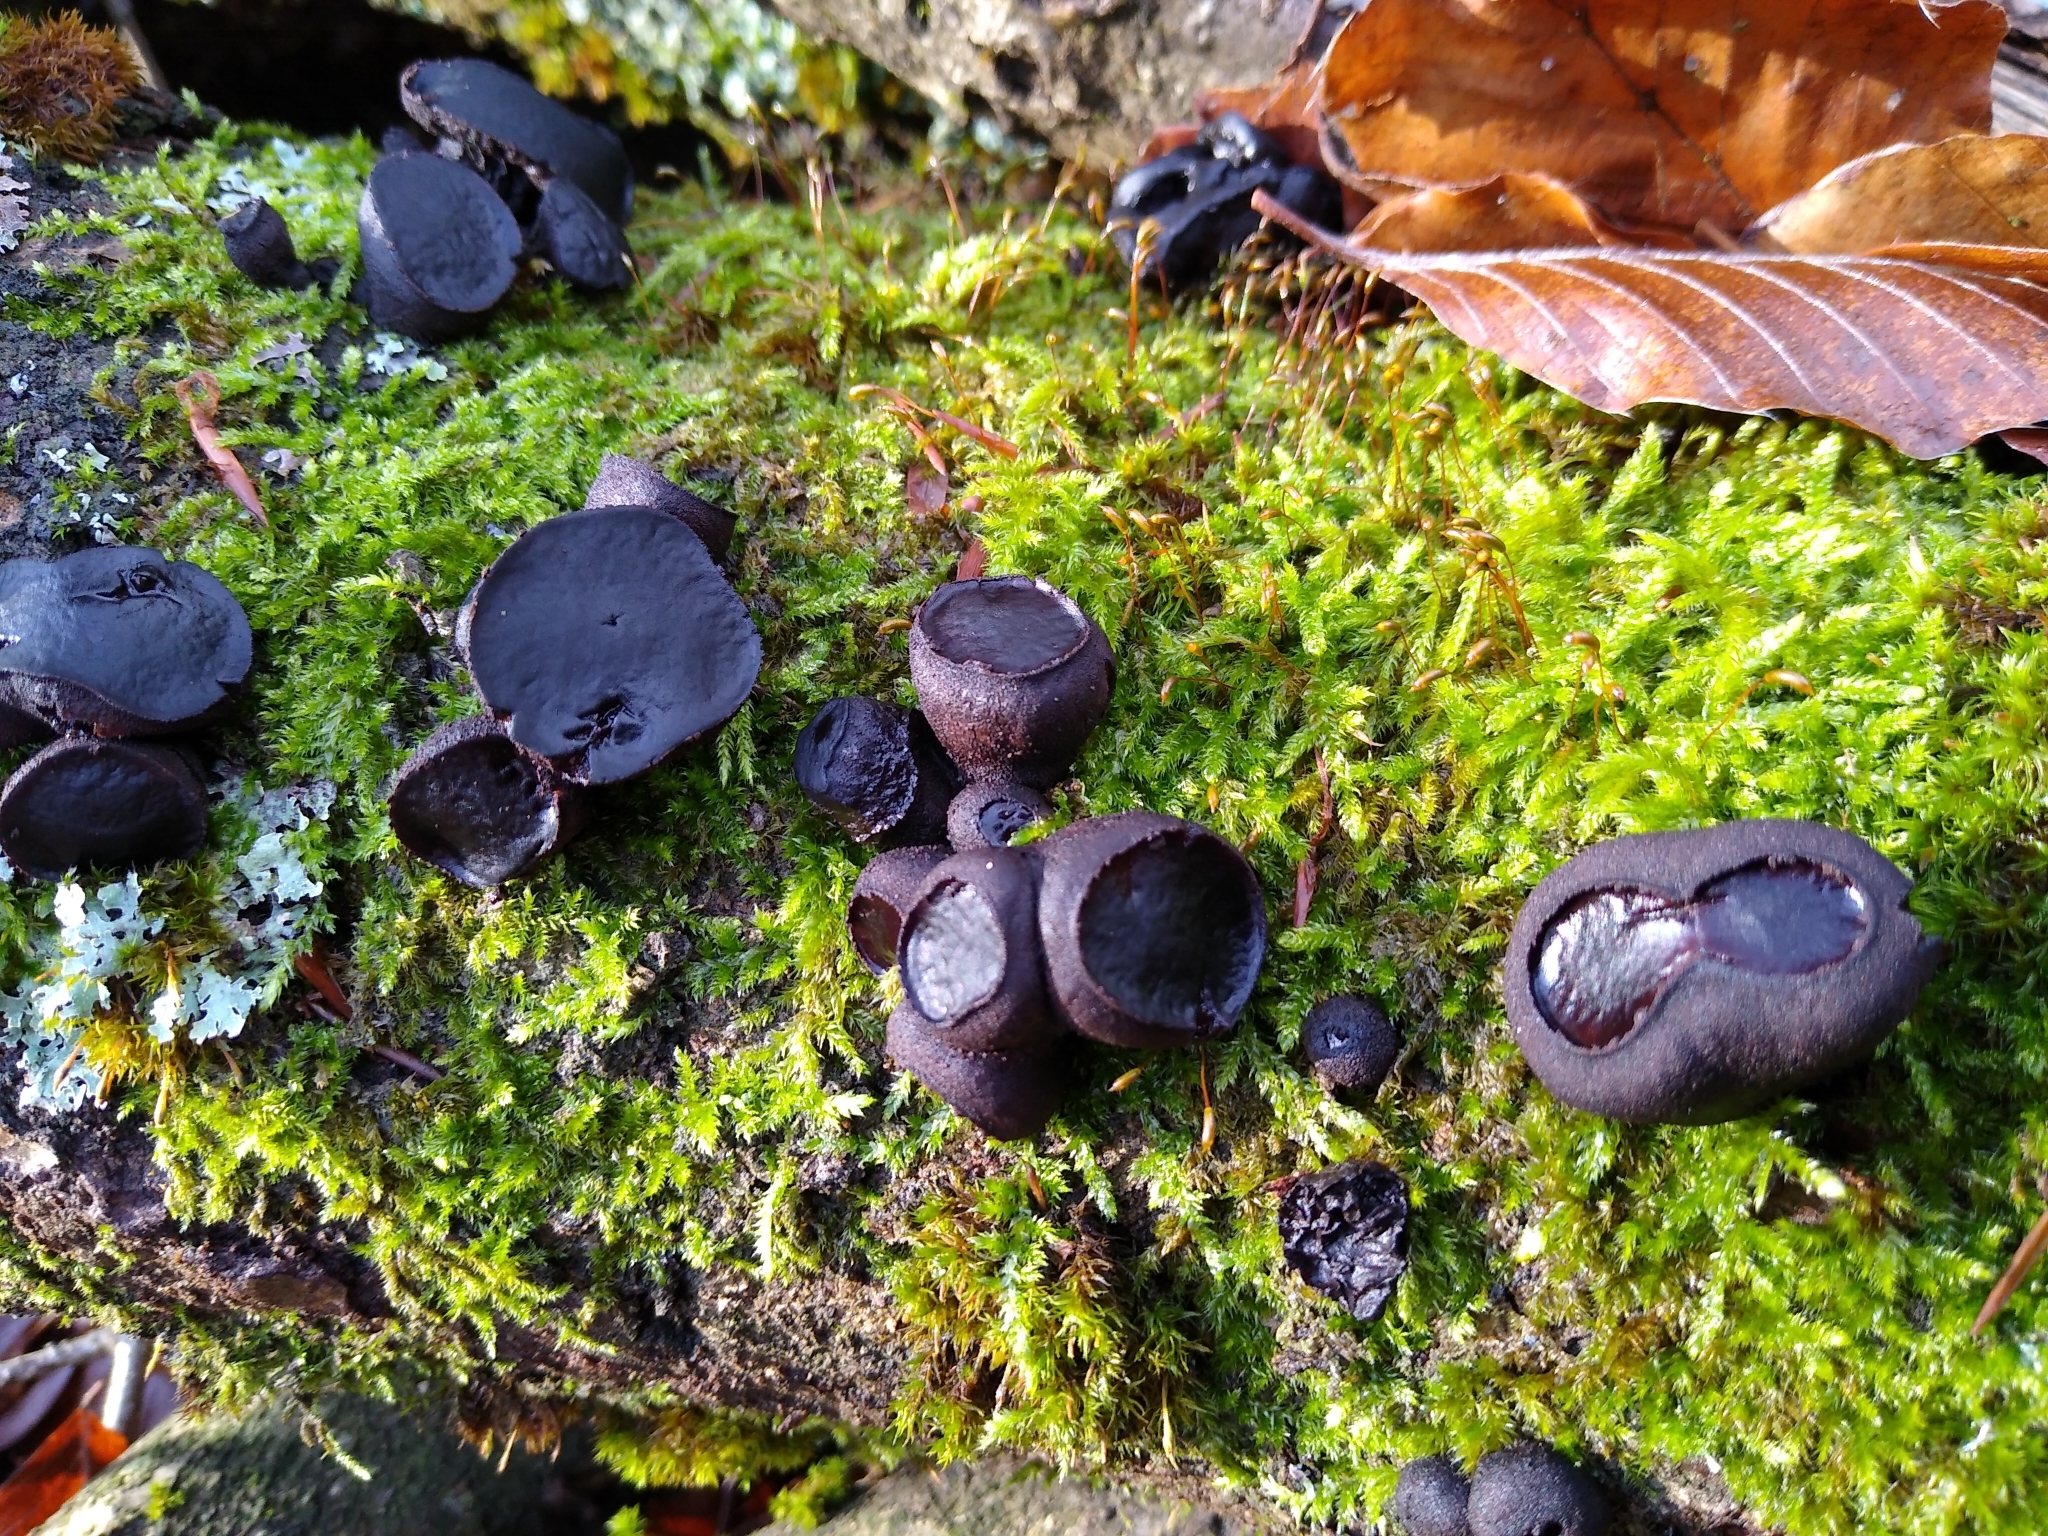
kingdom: Fungi
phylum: Ascomycota
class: Leotiomycetes
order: Phacidiales
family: Phacidiaceae
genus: Bulgaria
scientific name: Bulgaria inquinans
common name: Black bulgar
